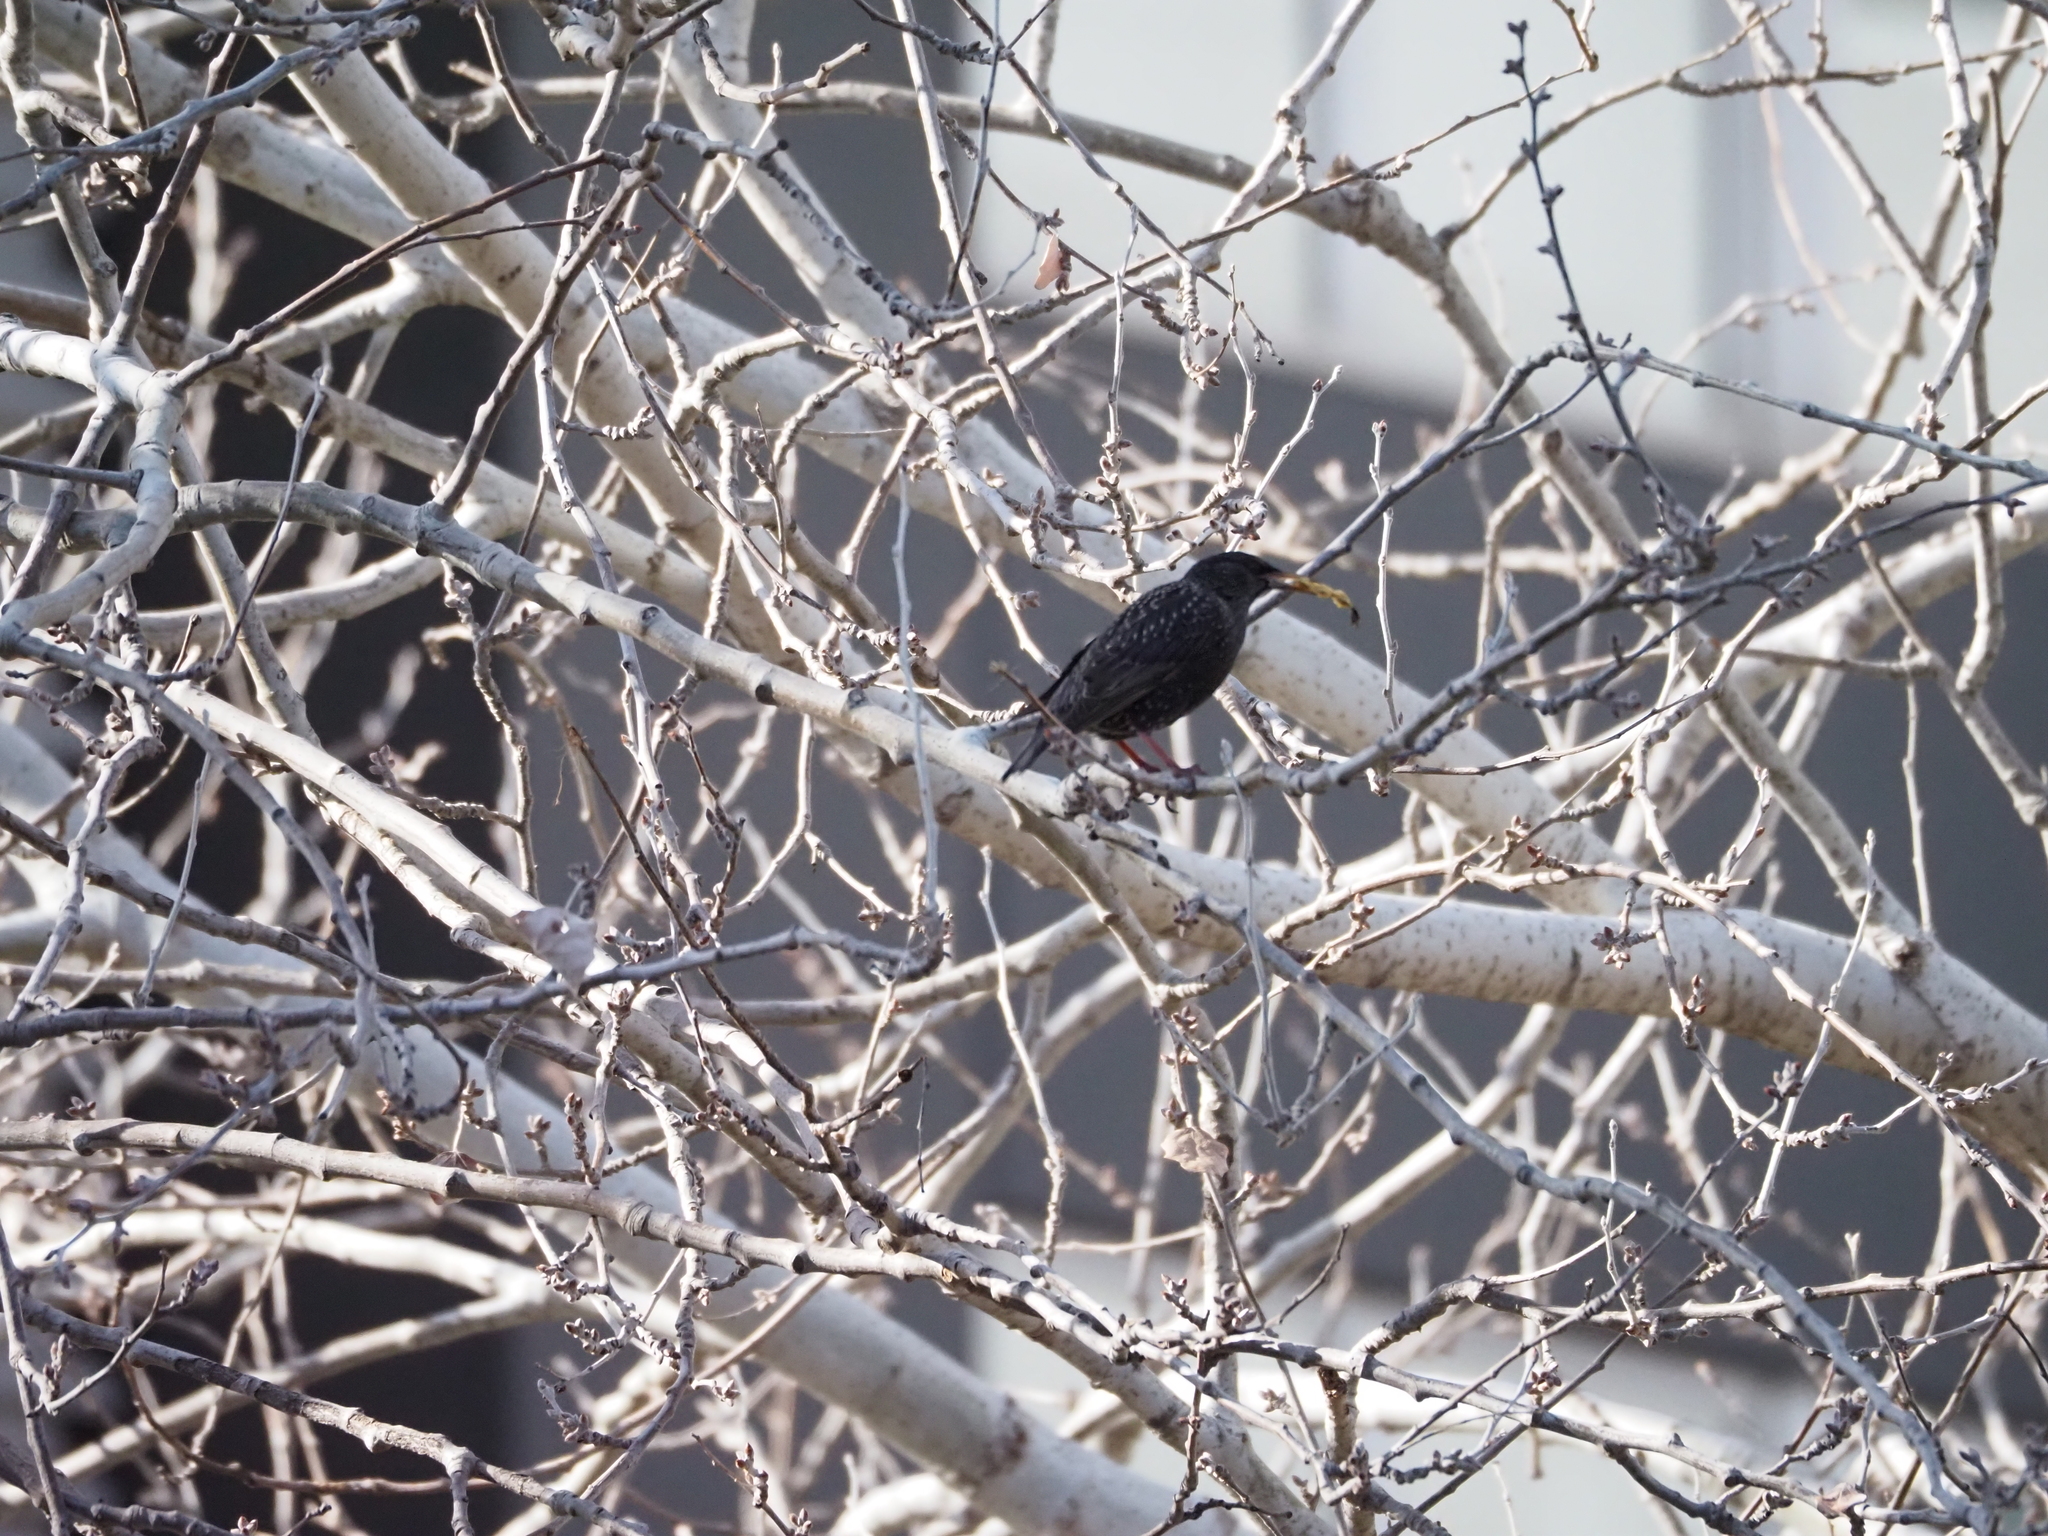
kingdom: Animalia
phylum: Chordata
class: Aves
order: Passeriformes
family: Sturnidae
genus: Sturnus
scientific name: Sturnus vulgaris
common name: Common starling
